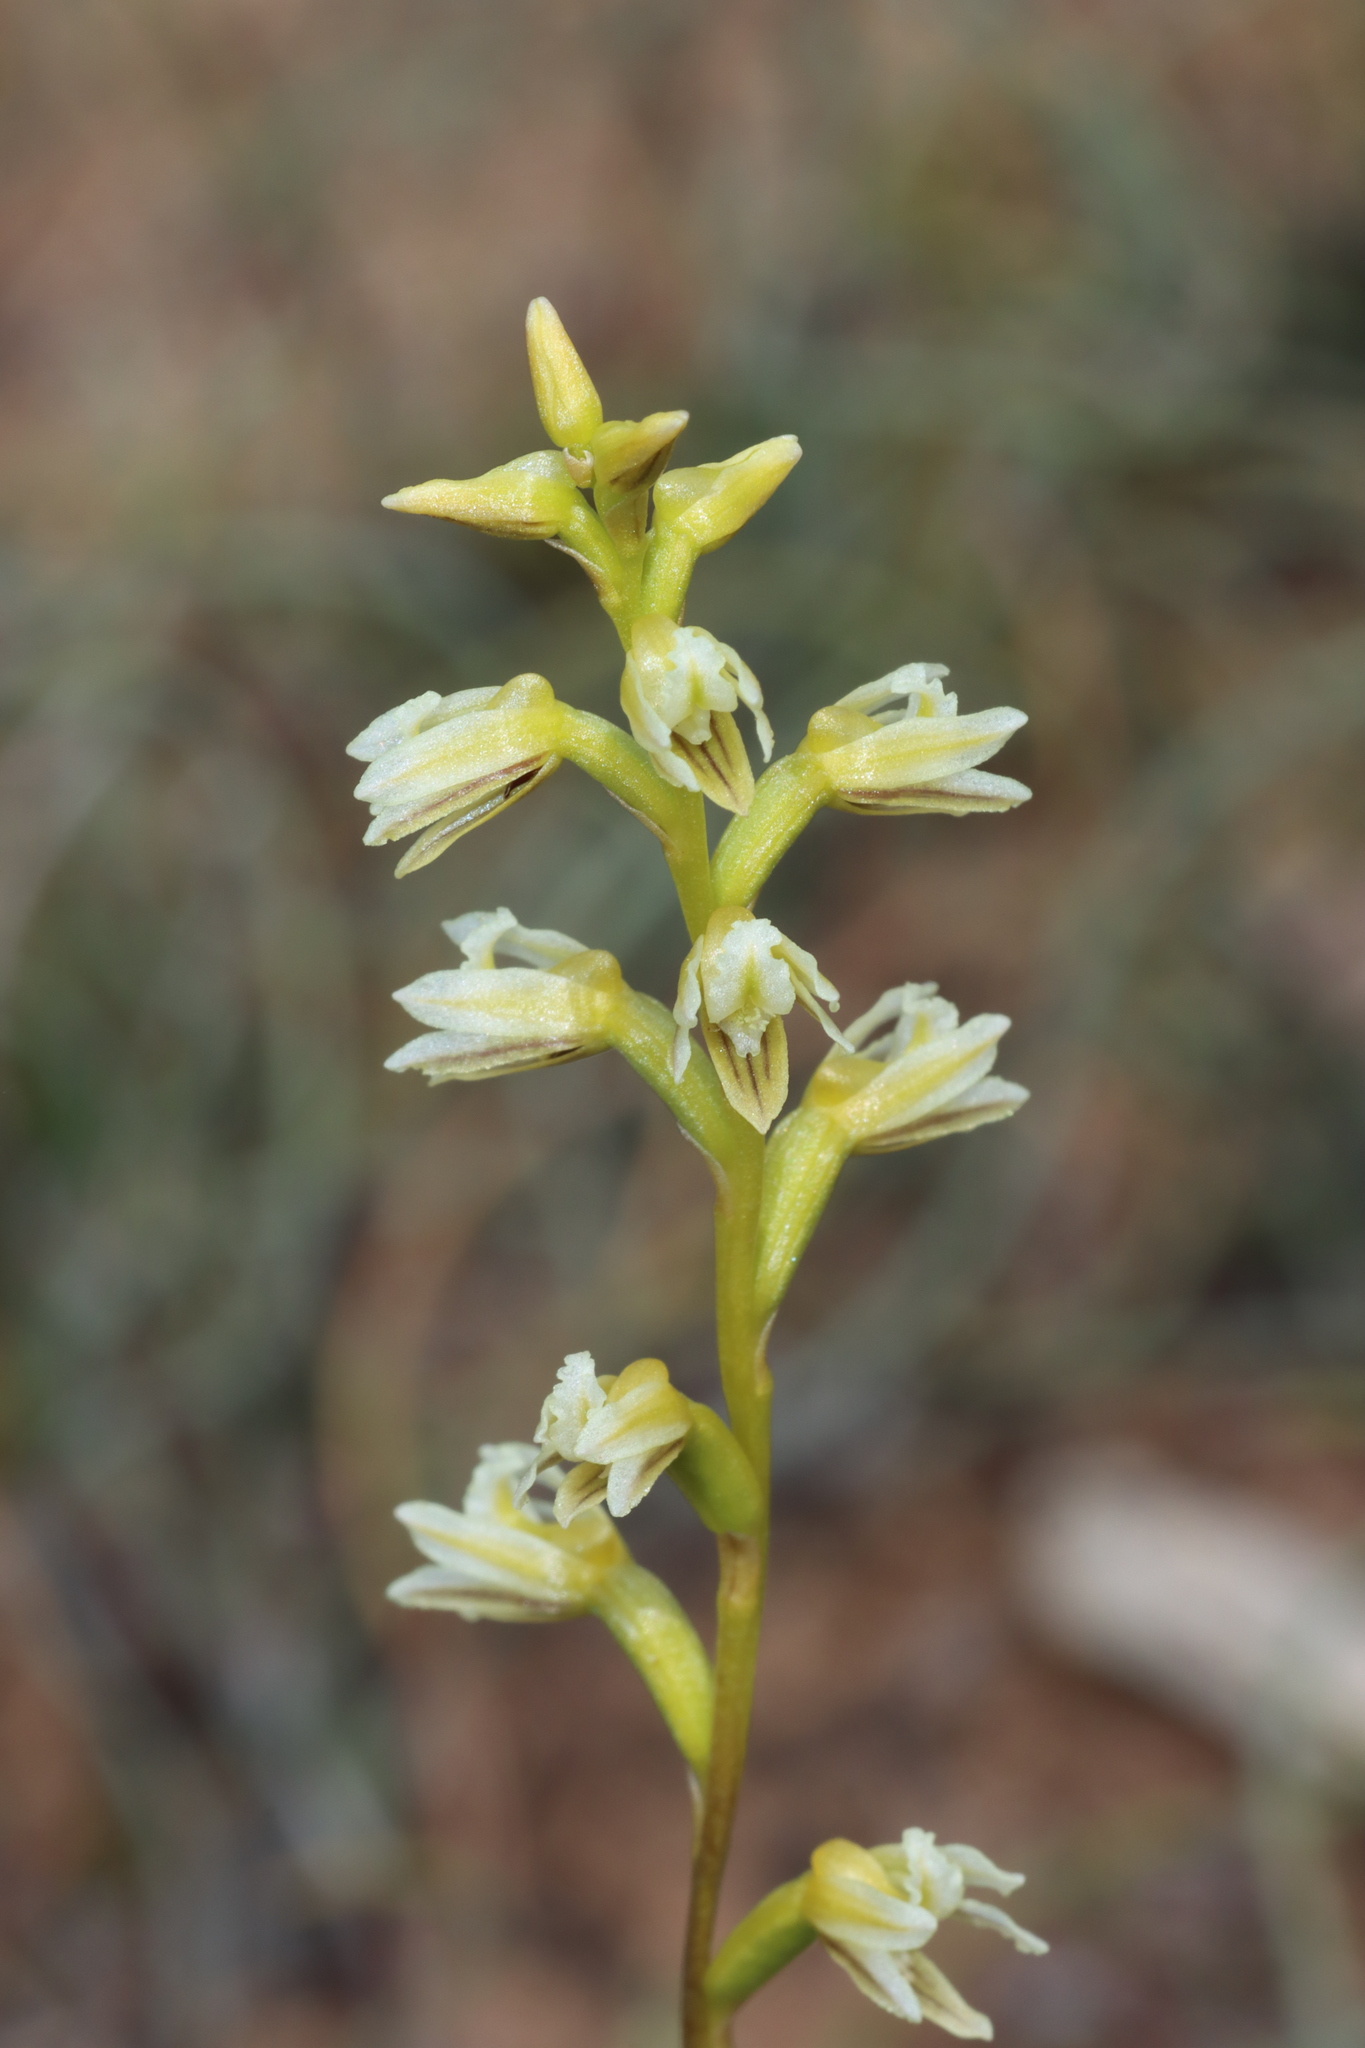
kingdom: Plantae
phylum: Tracheophyta
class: Liliopsida
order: Asparagales
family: Orchidaceae
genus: Prasophyllum
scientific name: Prasophyllum cyphochilum
